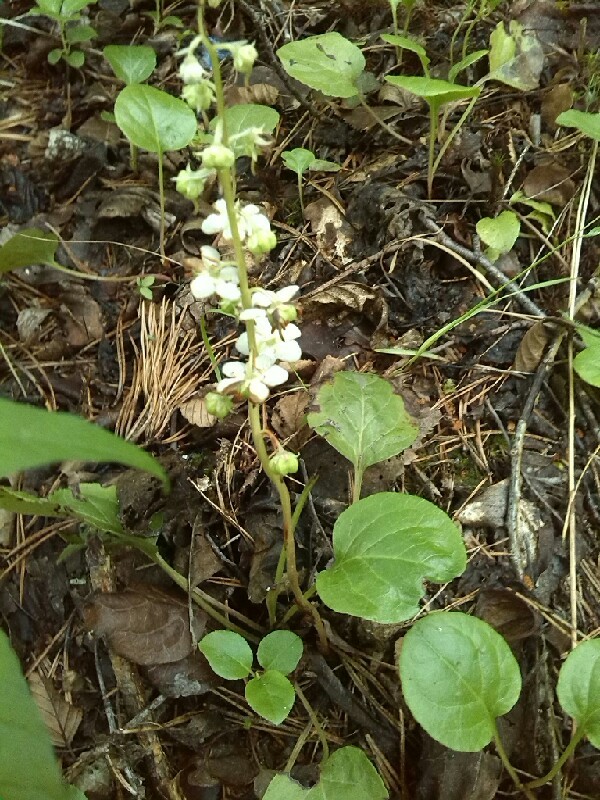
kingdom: Plantae
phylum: Tracheophyta
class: Magnoliopsida
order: Ericales
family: Ericaceae
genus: Pyrola
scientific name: Pyrola rotundifolia
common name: Round-leaved wintergreen
